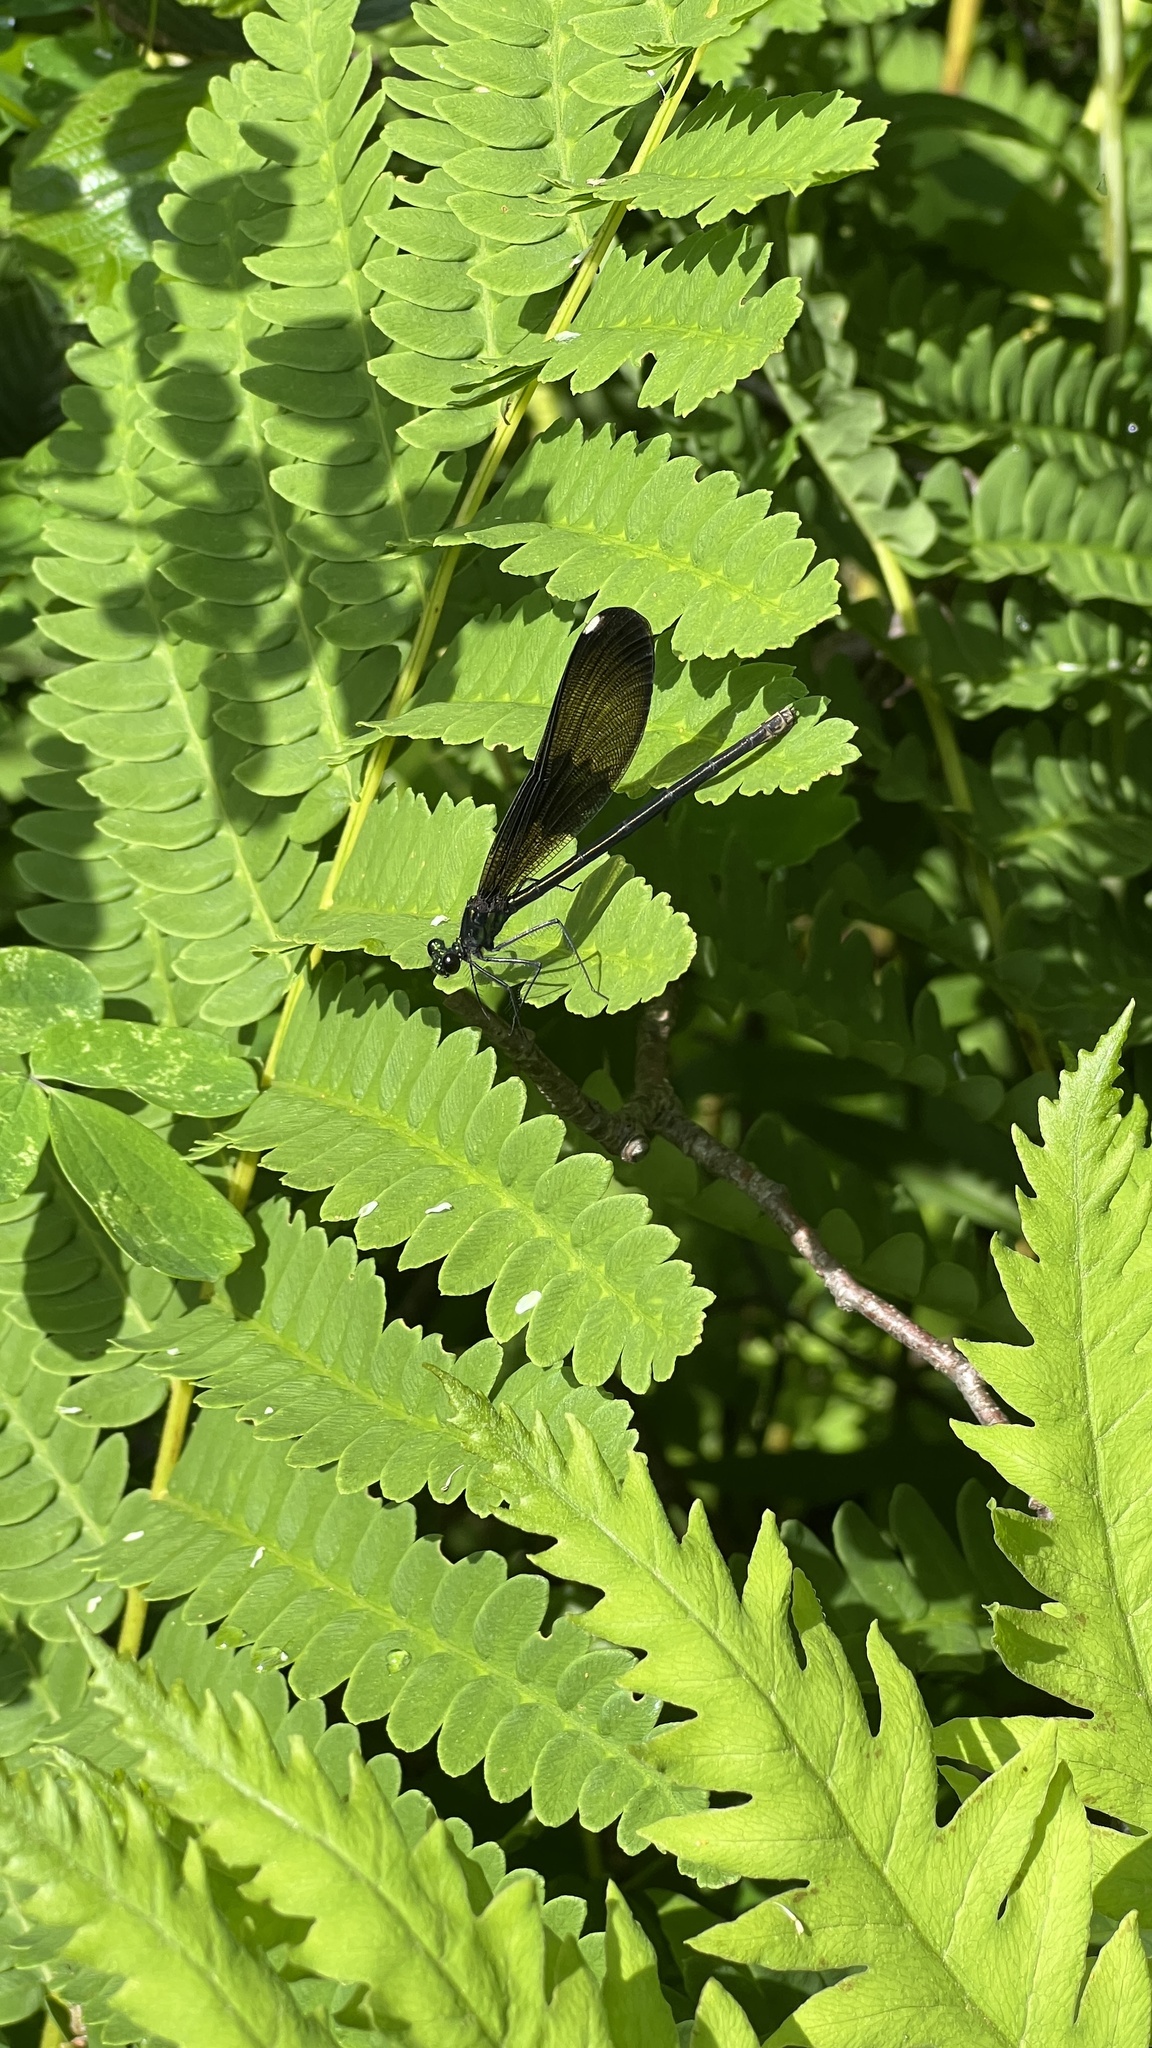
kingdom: Animalia
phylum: Arthropoda
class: Insecta
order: Odonata
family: Calopterygidae
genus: Calopteryx
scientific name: Calopteryx maculata
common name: Ebony jewelwing
